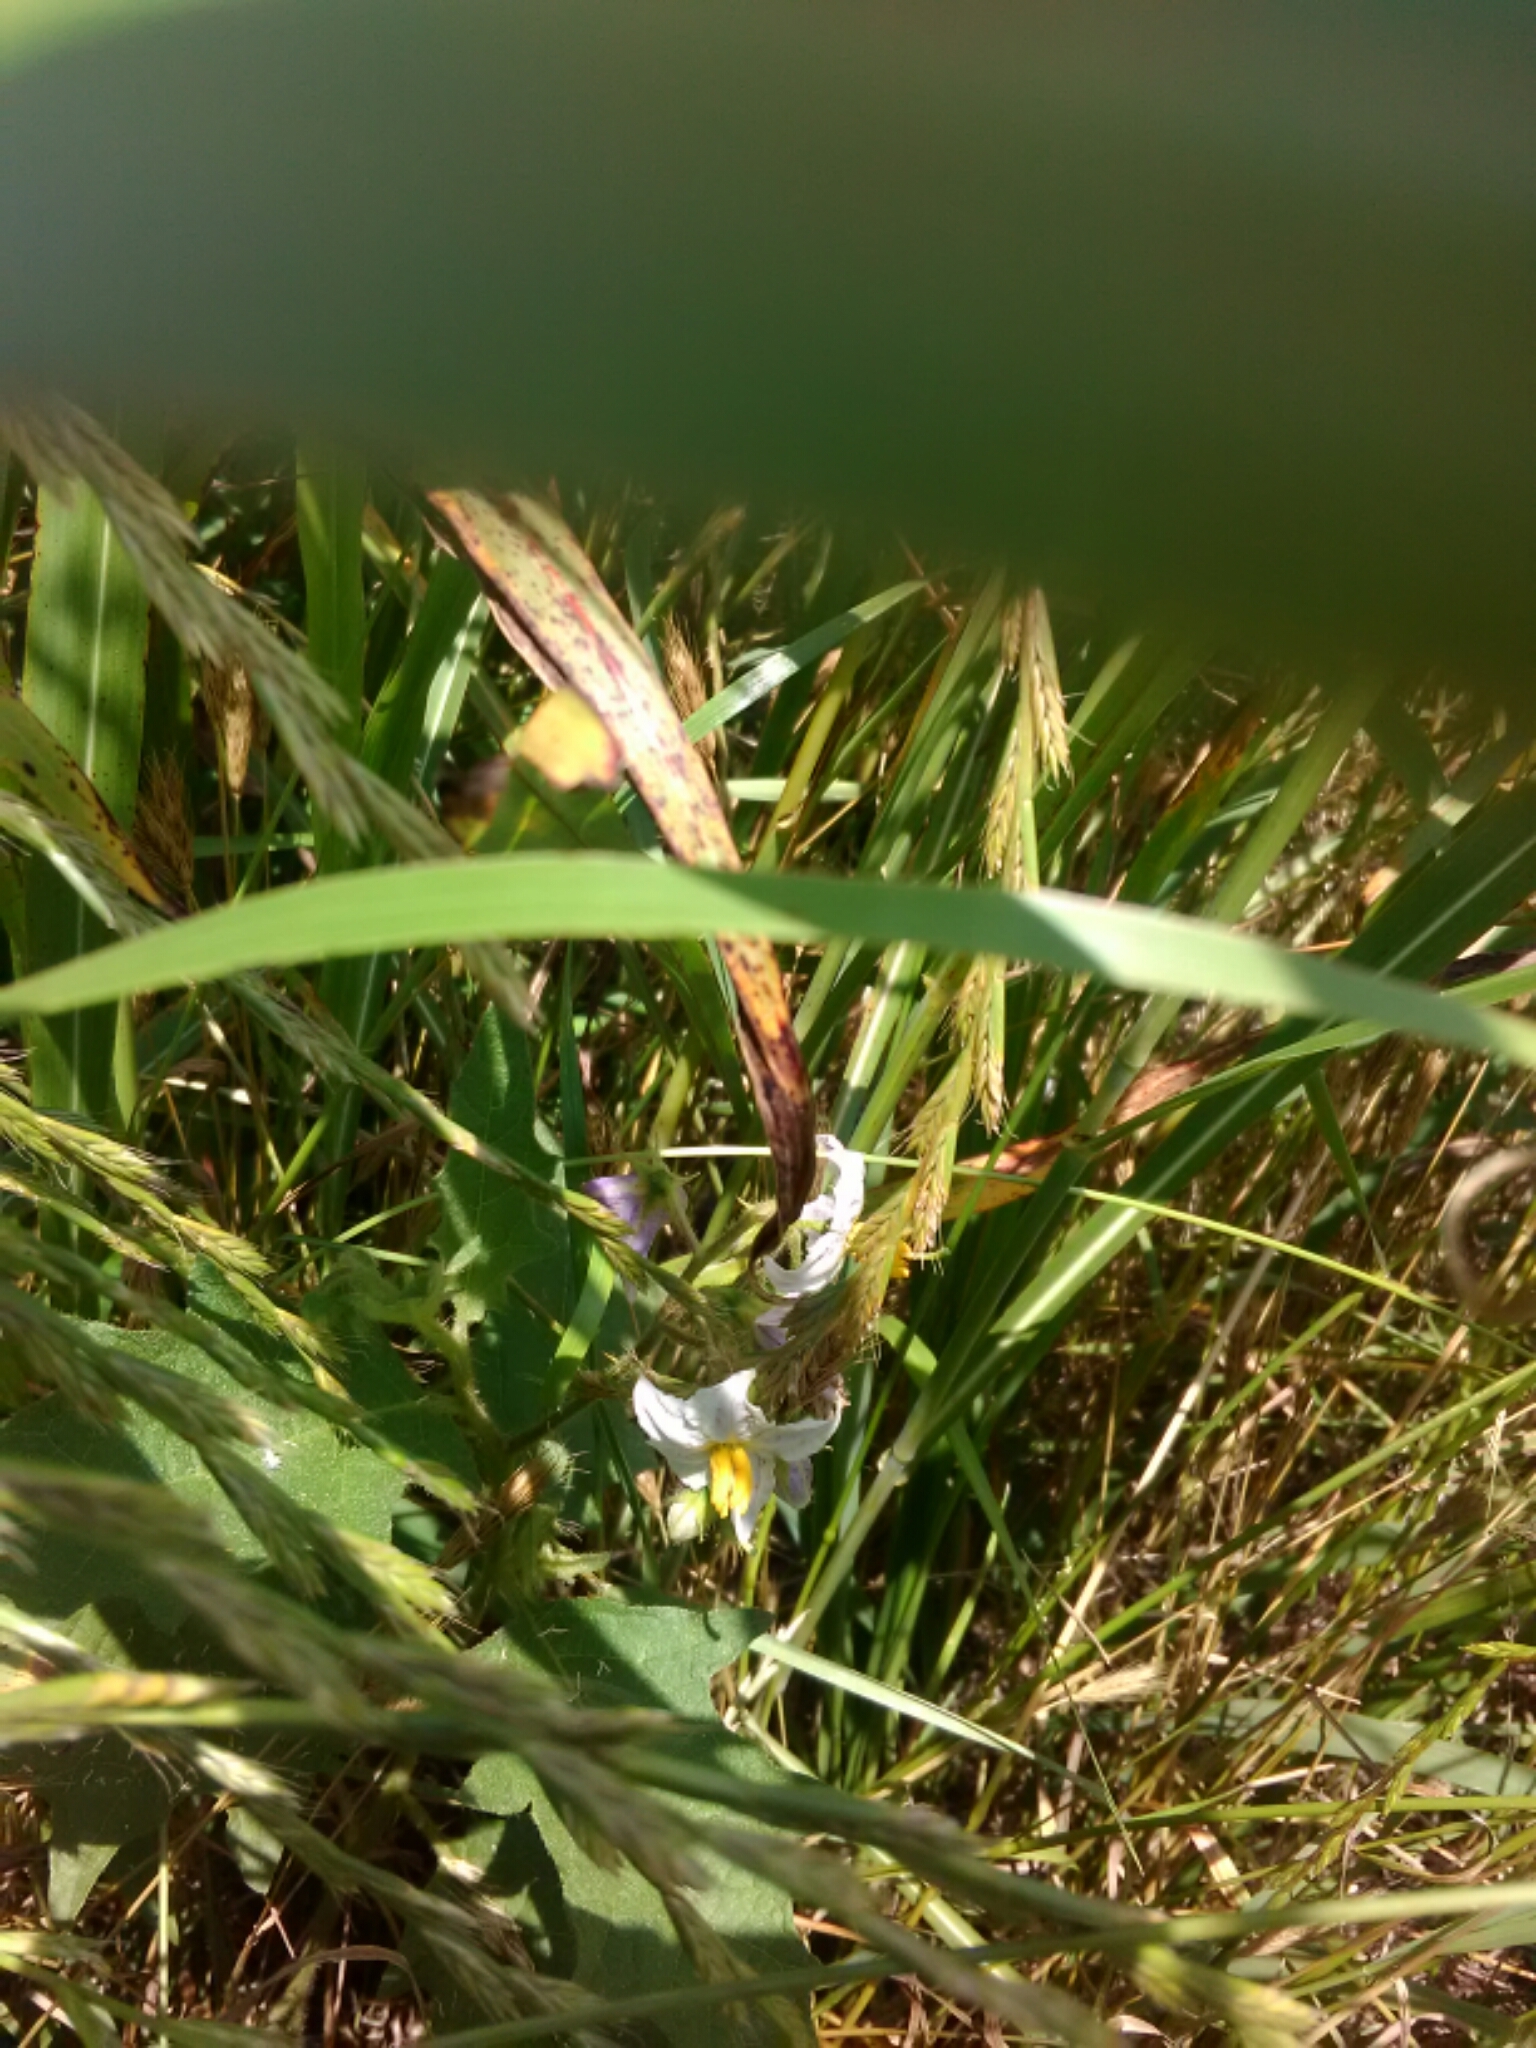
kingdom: Plantae
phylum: Tracheophyta
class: Magnoliopsida
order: Solanales
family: Solanaceae
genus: Solanum
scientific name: Solanum carolinense
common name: Horse-nettle
